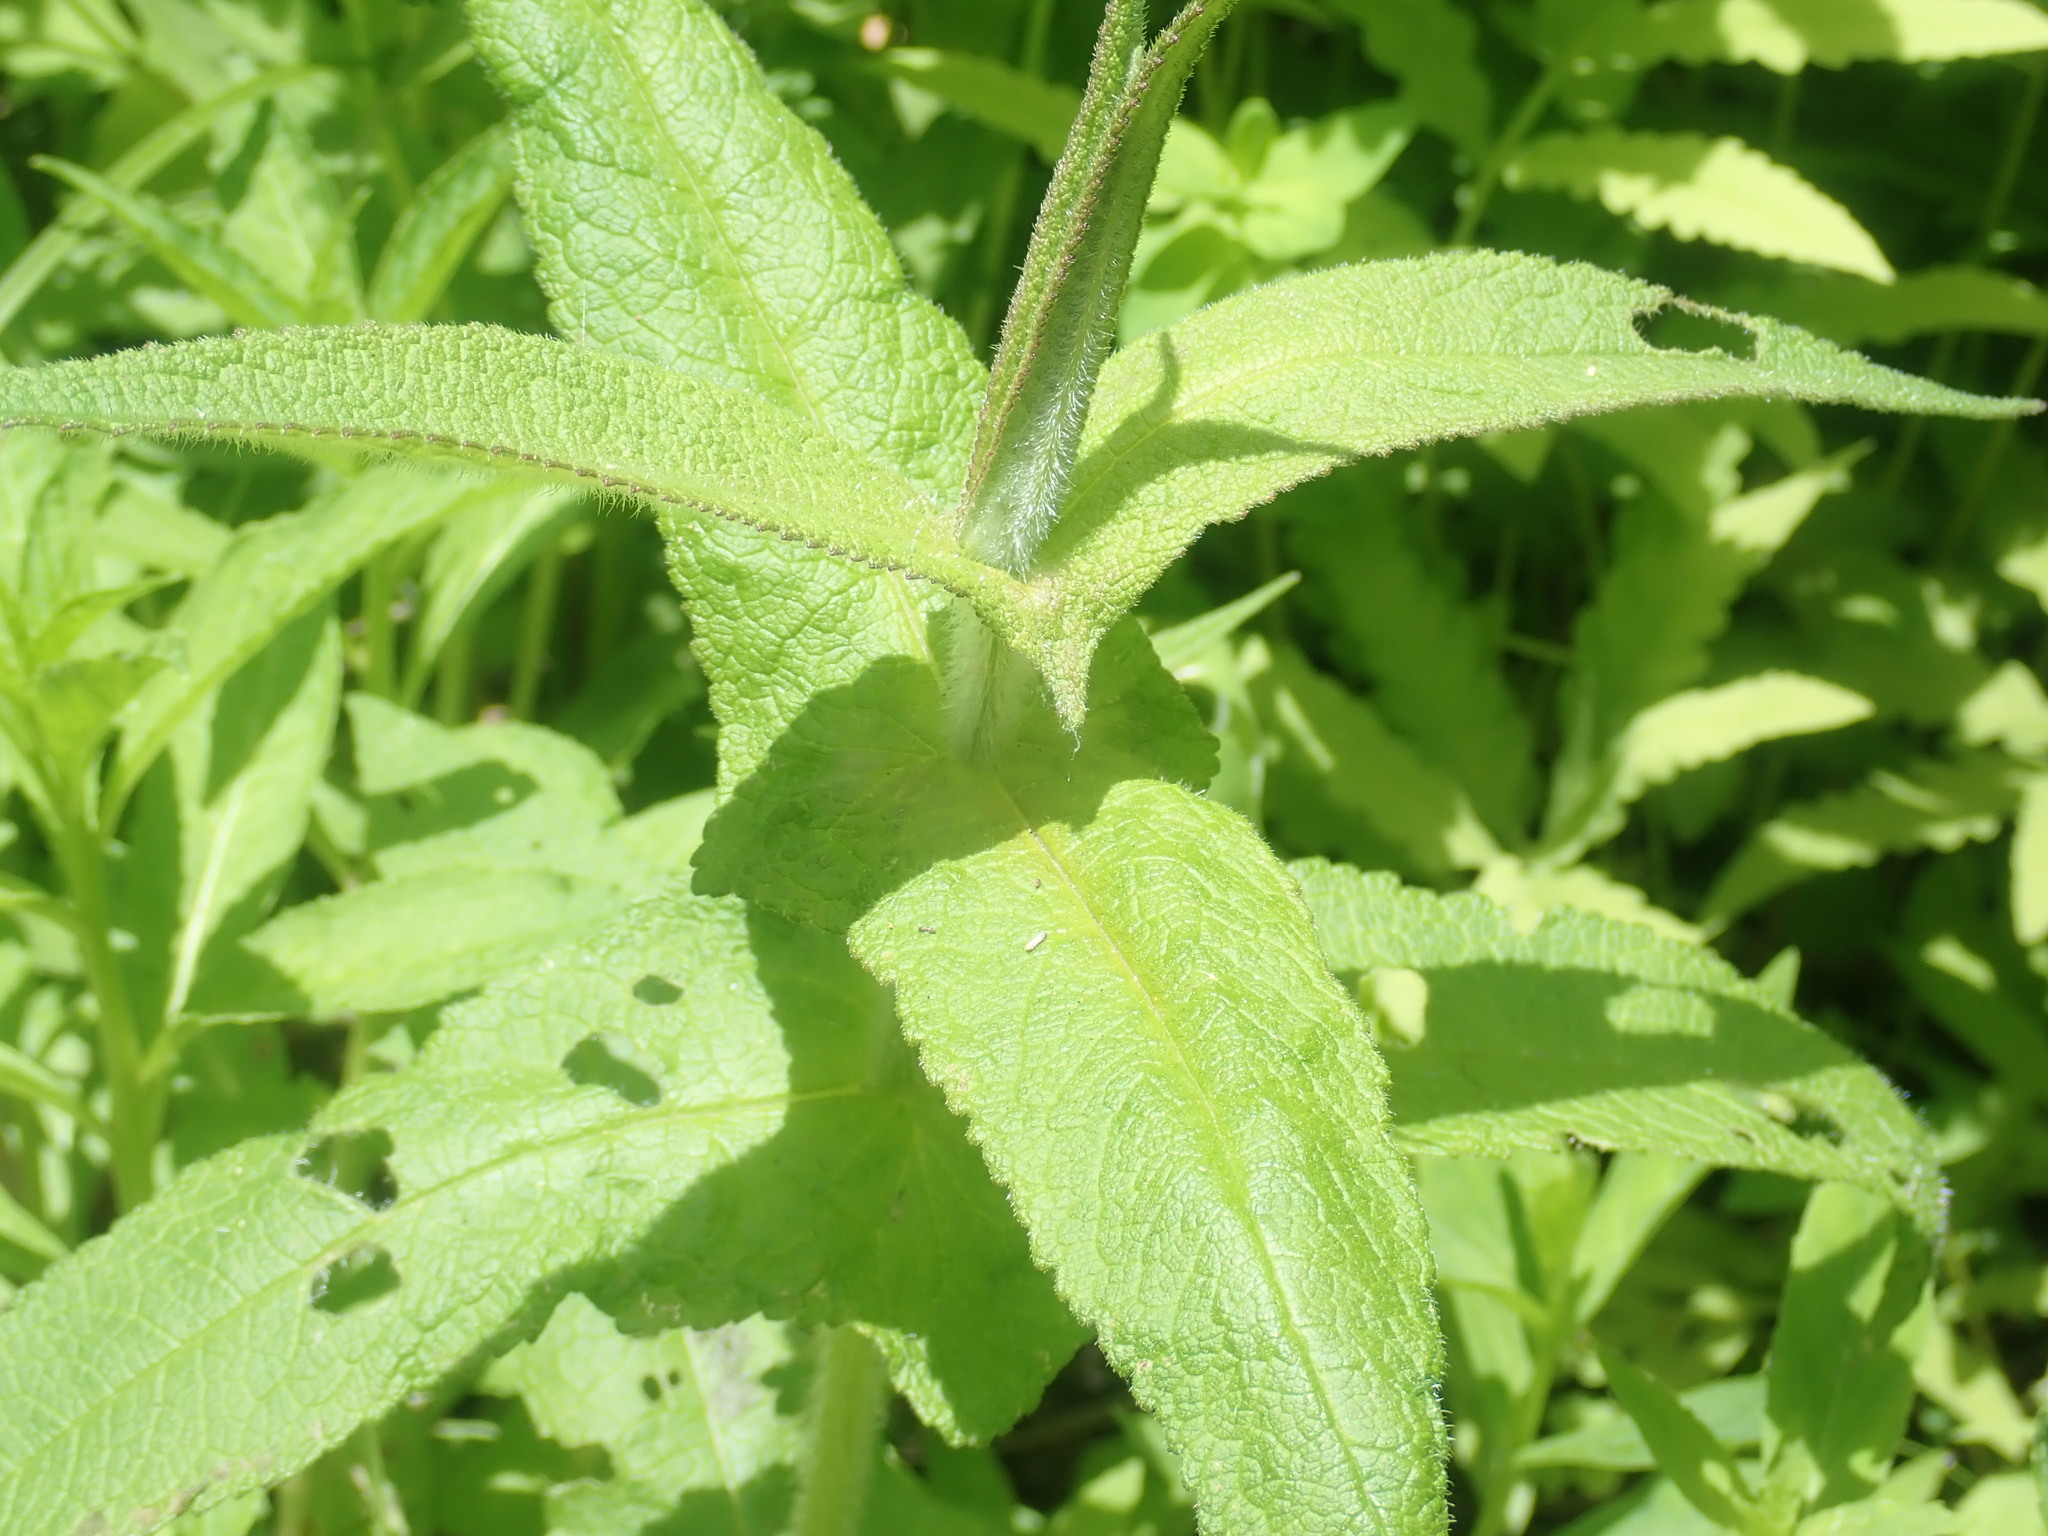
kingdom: Plantae
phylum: Tracheophyta
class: Magnoliopsida
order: Asterales
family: Asteraceae
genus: Eupatorium
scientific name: Eupatorium perfoliatum
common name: Boneset
